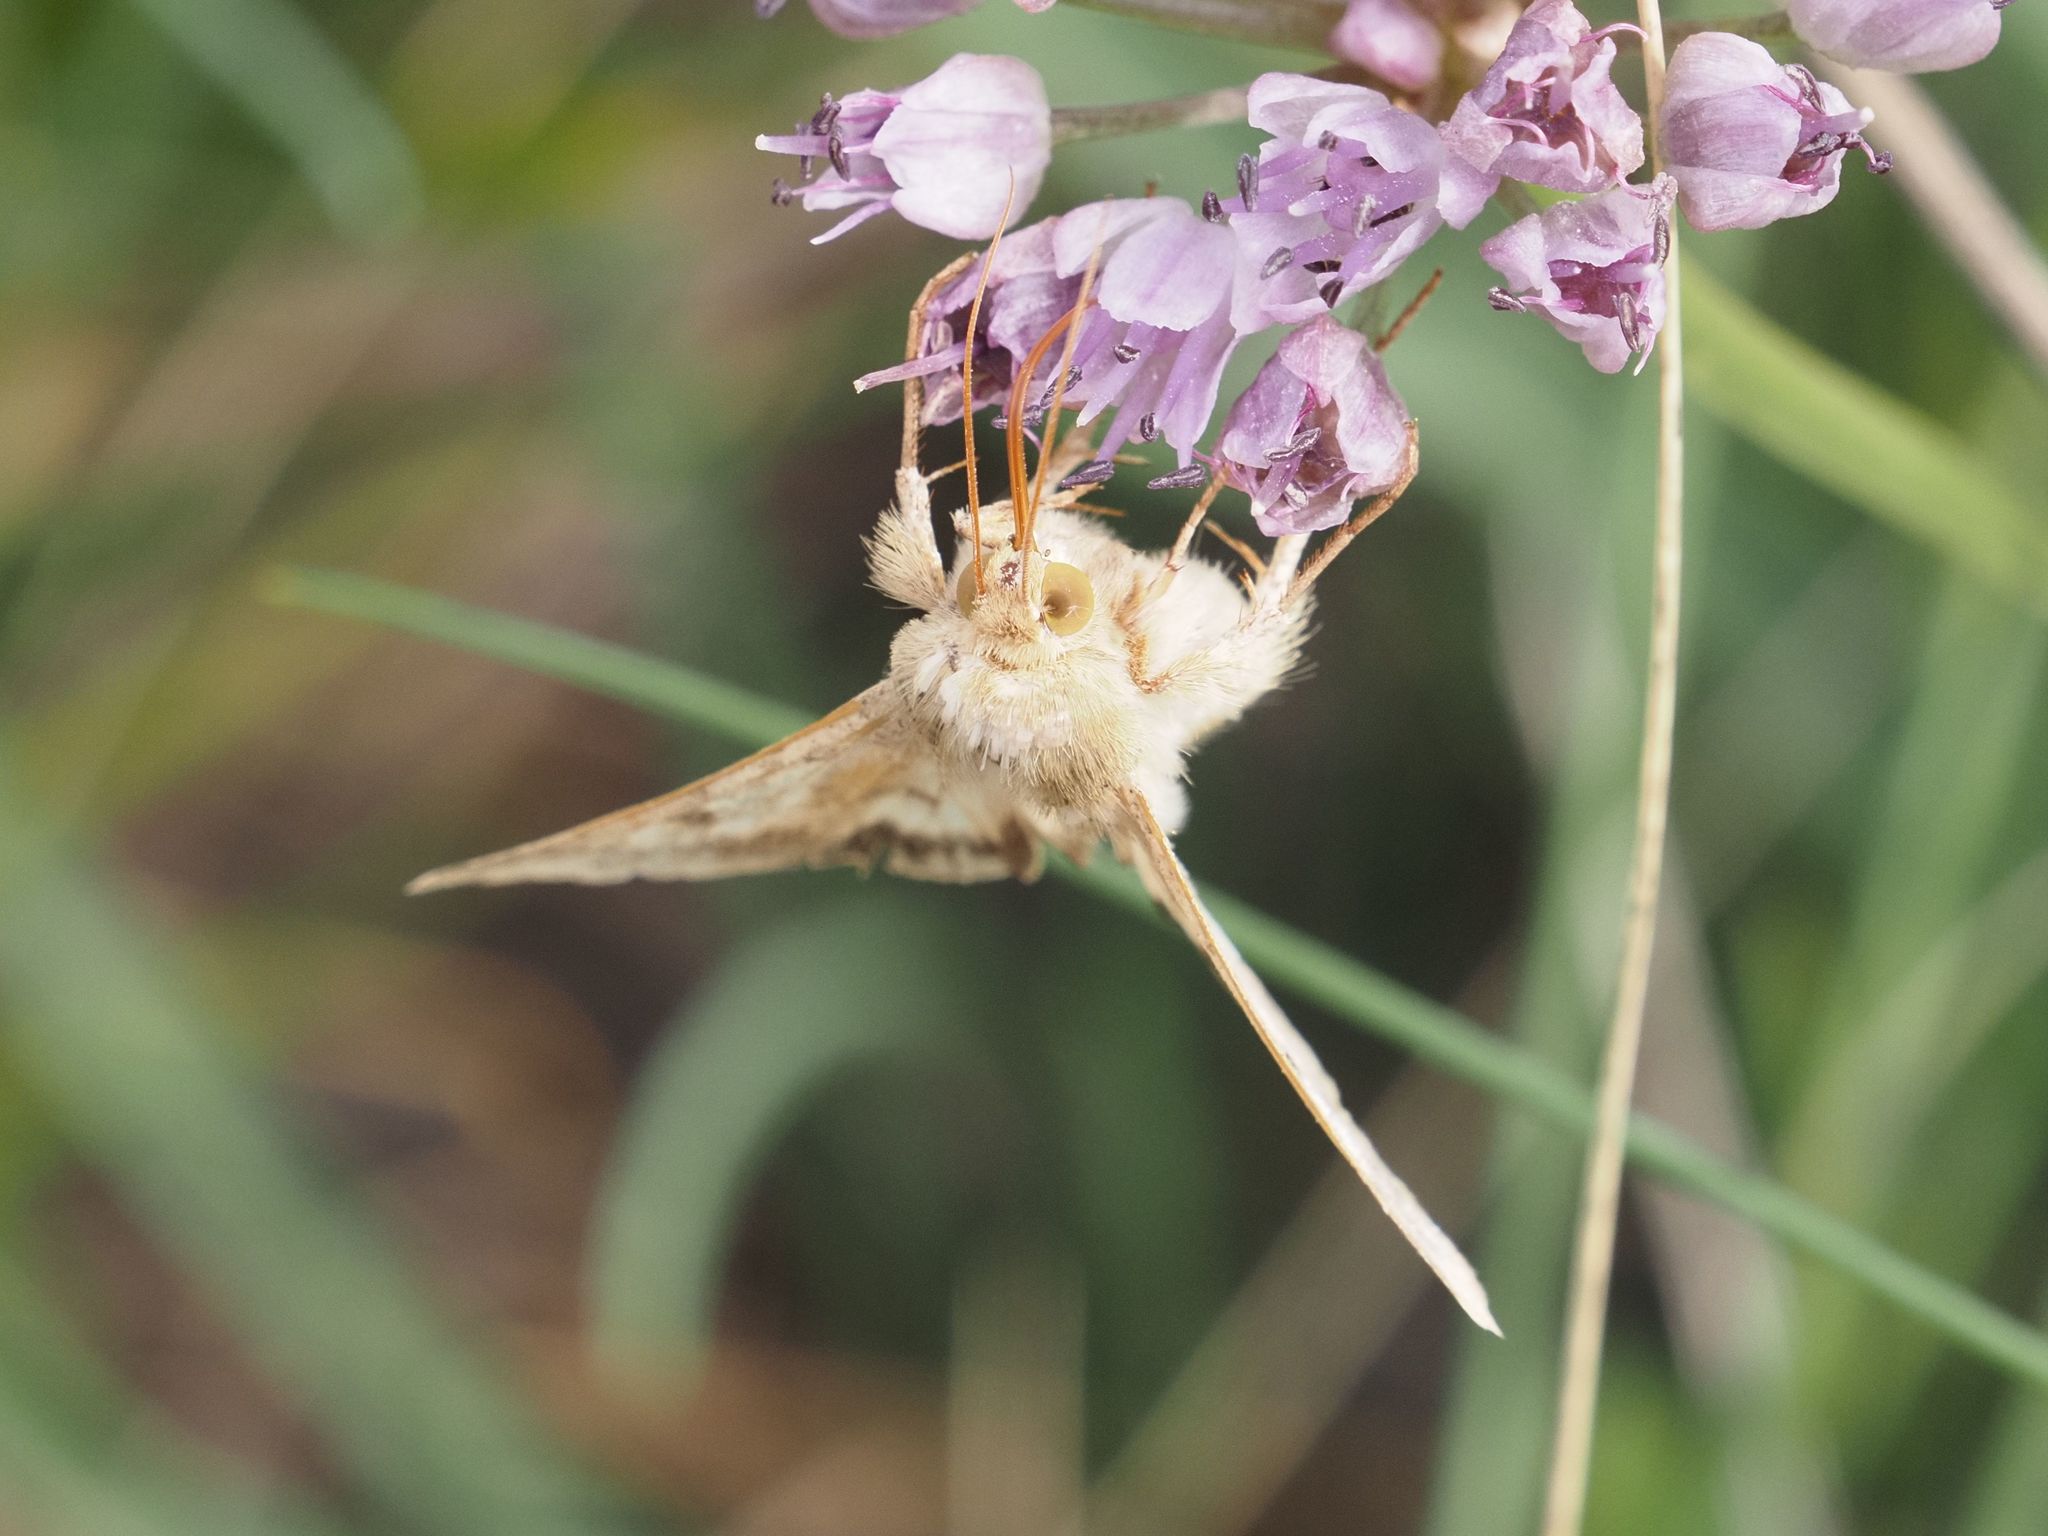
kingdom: Animalia
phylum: Arthropoda
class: Insecta
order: Lepidoptera
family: Noctuidae
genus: Helicoverpa
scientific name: Helicoverpa armigera
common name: Cotton bollworm
